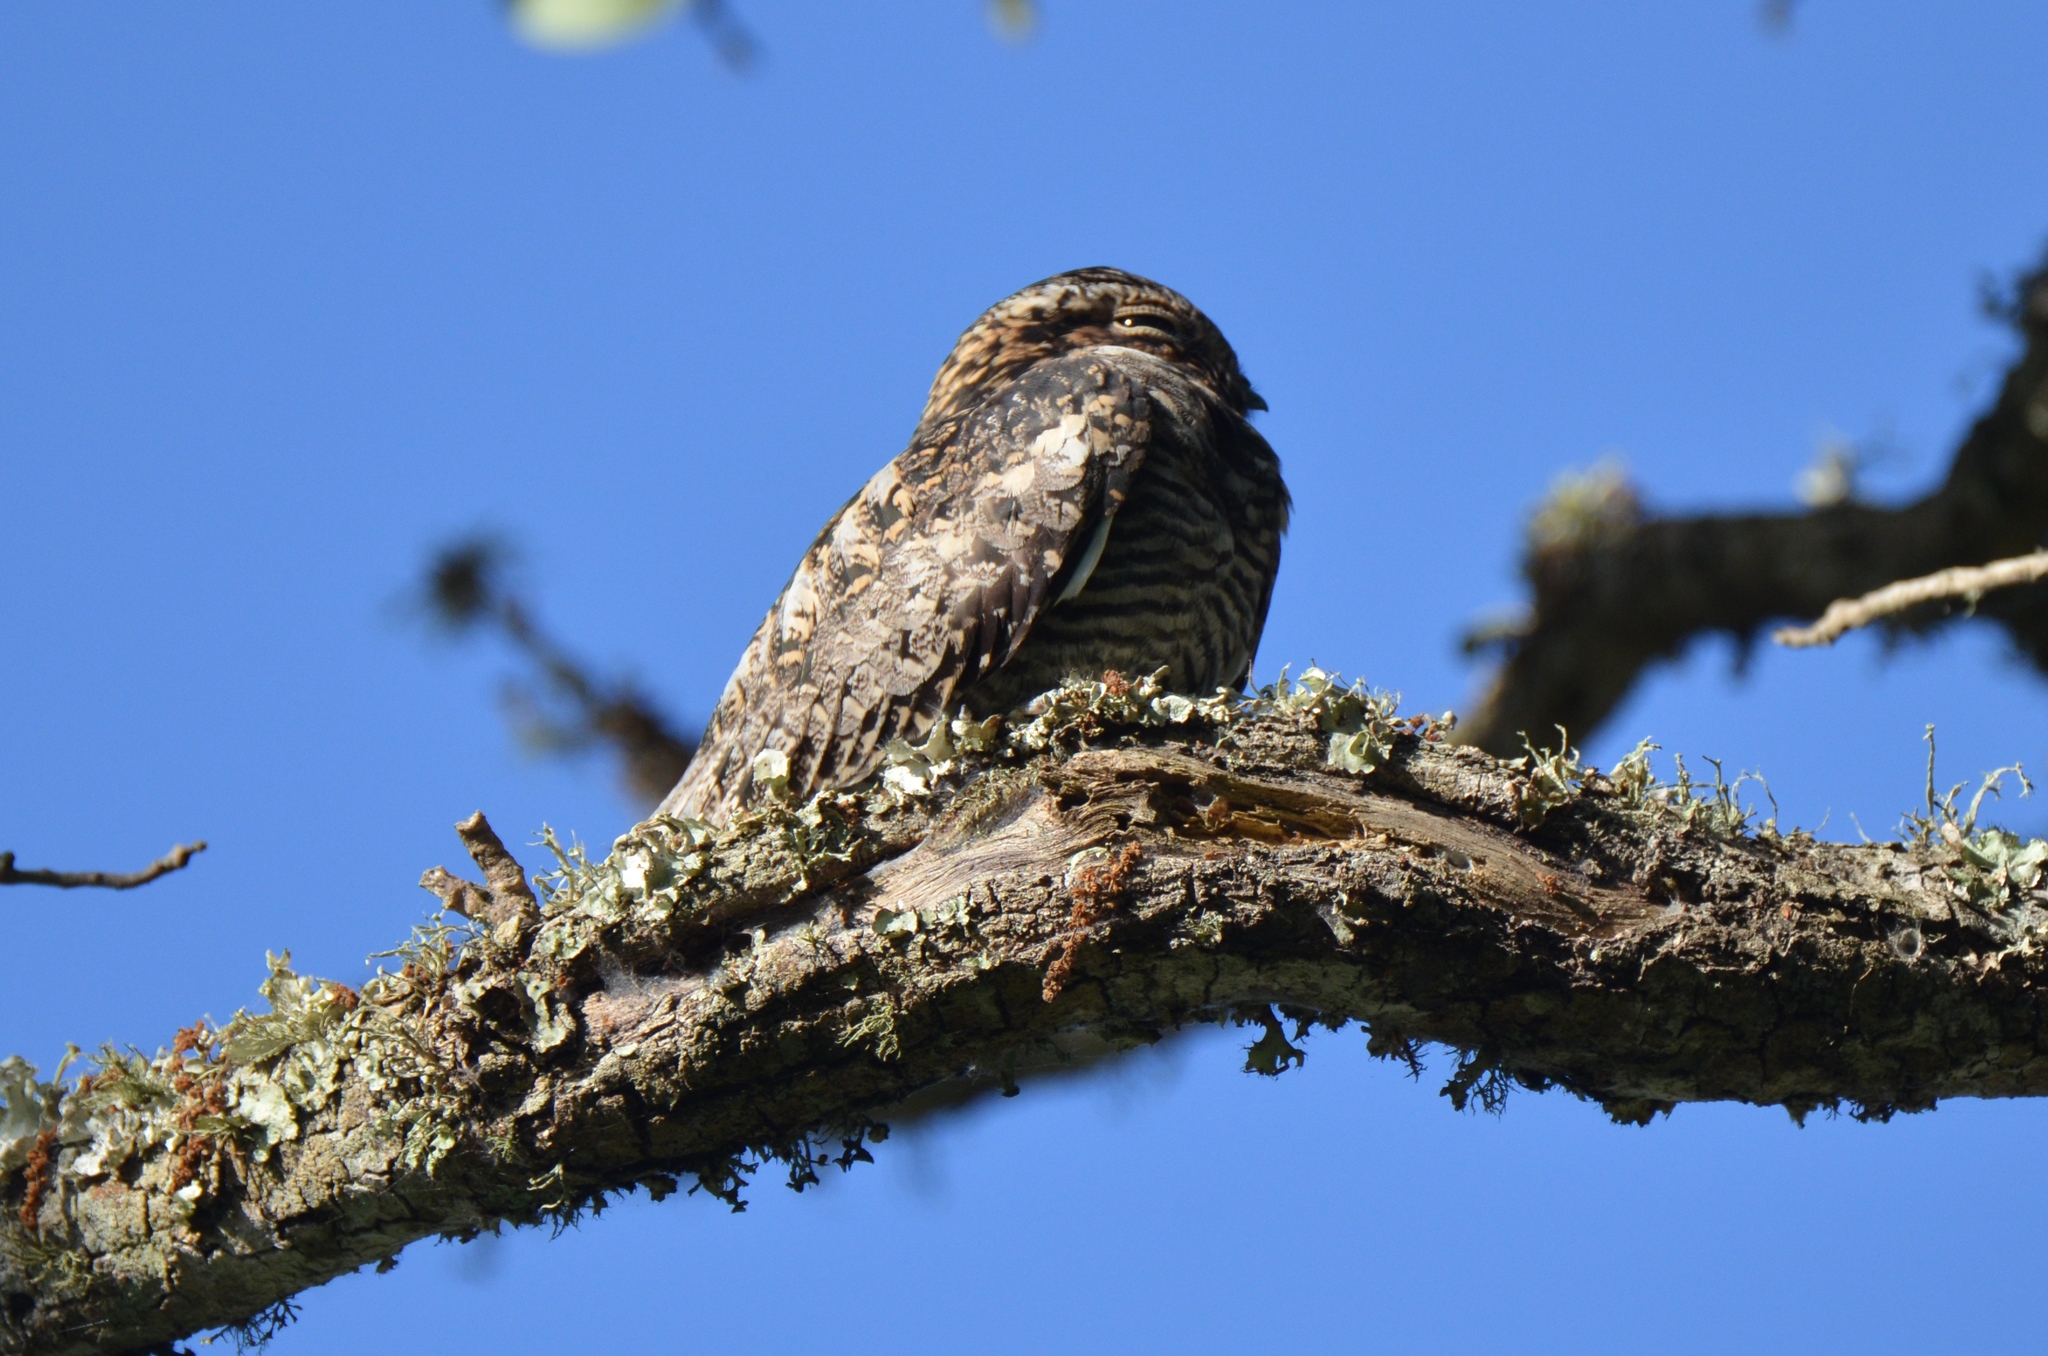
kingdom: Animalia
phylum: Chordata
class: Aves
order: Caprimulgiformes
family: Caprimulgidae
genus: Chordeiles
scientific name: Chordeiles minor
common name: Common nighthawk
